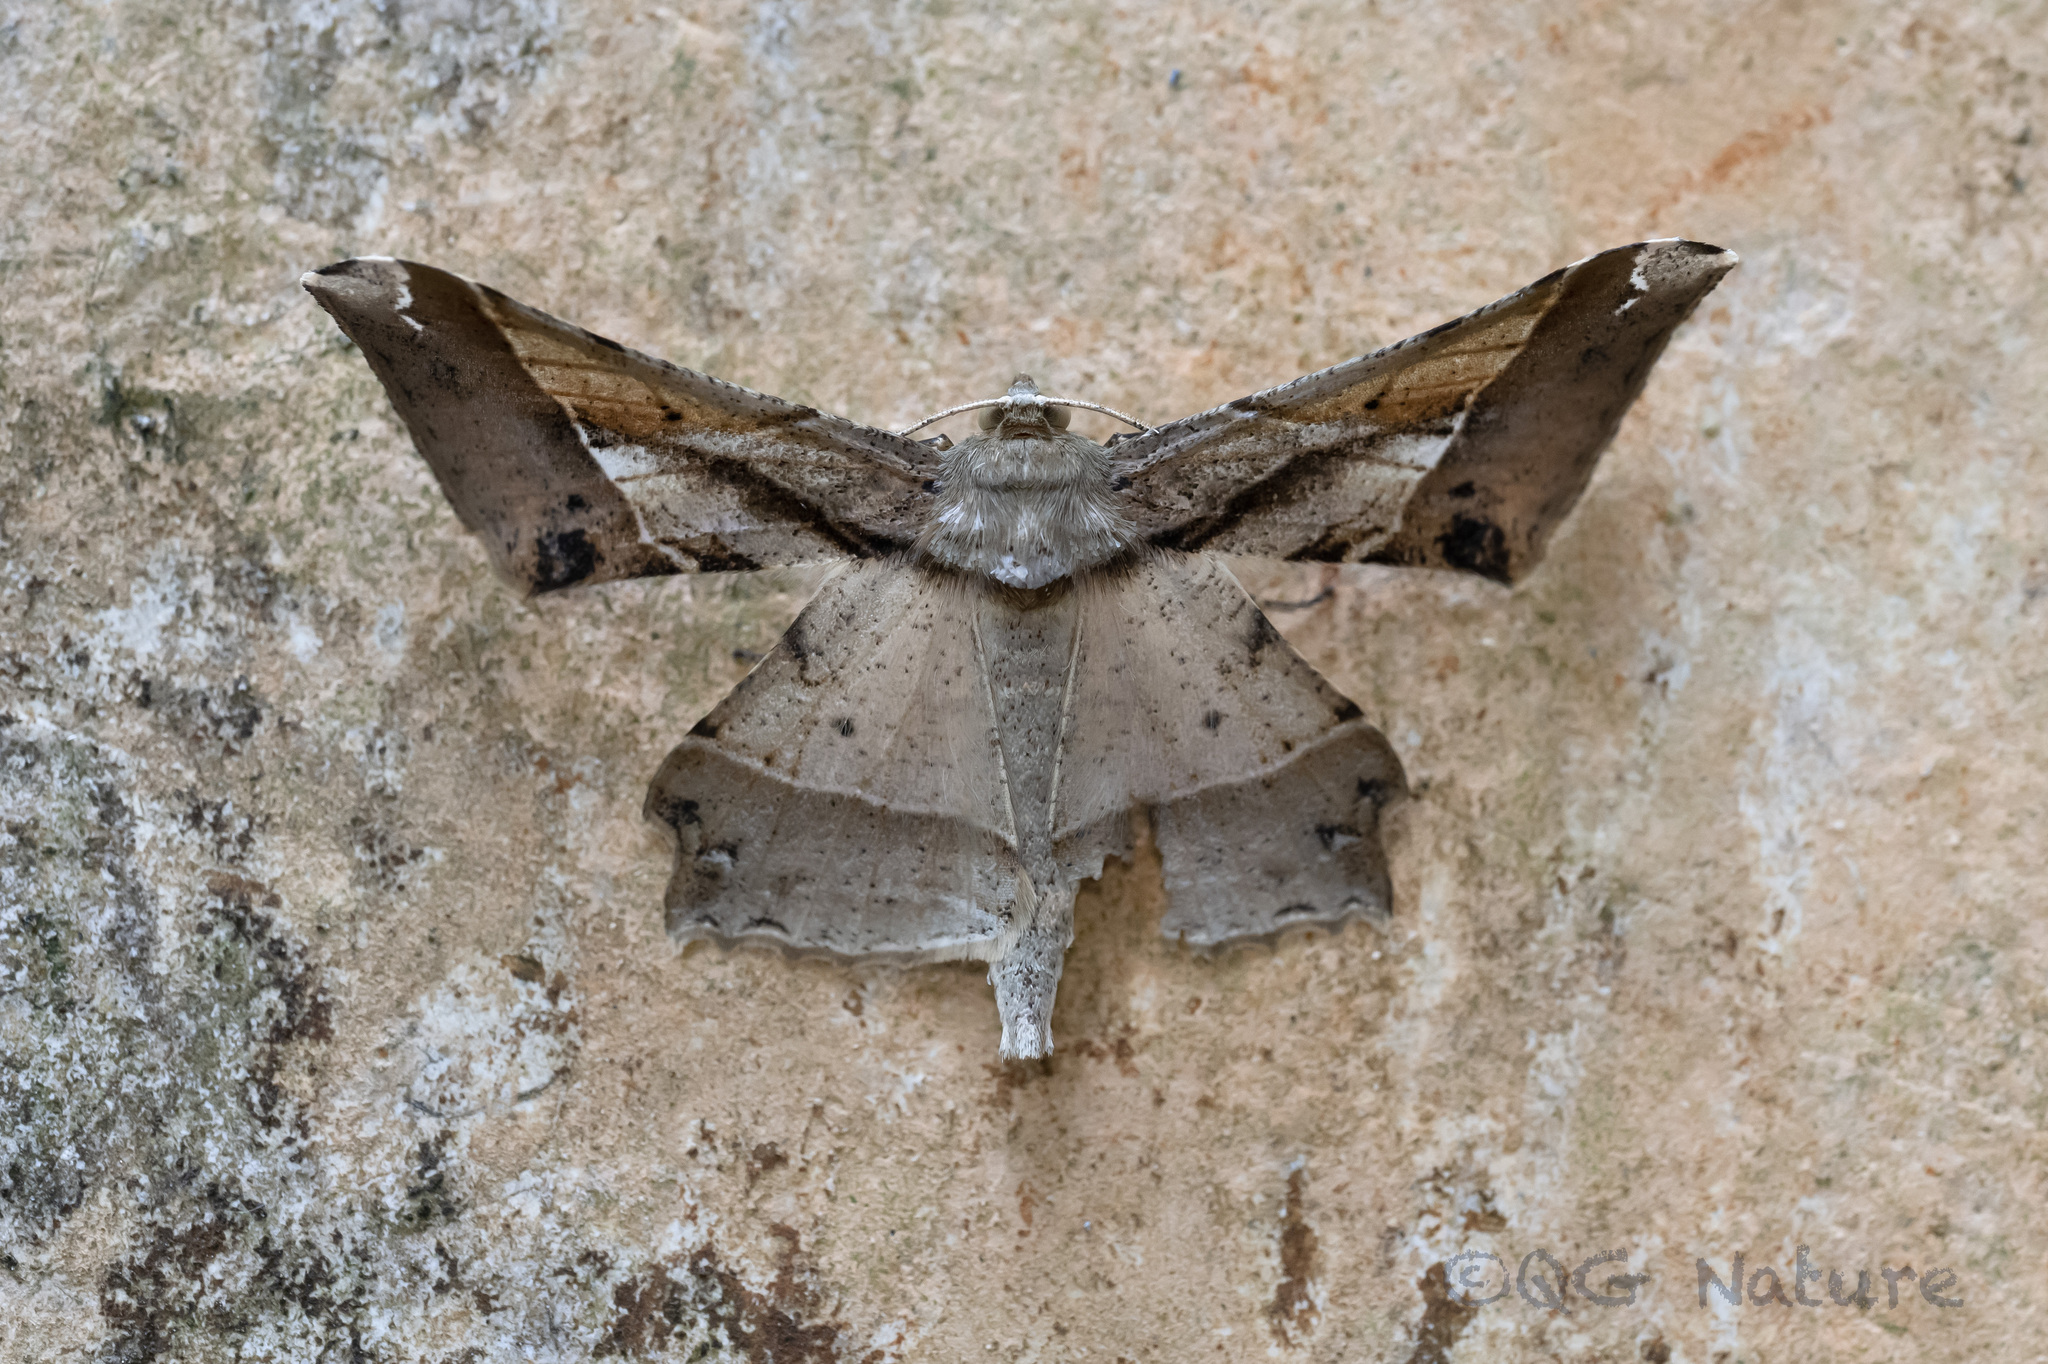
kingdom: Animalia
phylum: Arthropoda
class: Insecta
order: Lepidoptera
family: Geometridae
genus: Krananda
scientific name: Krananda latimarginaria
